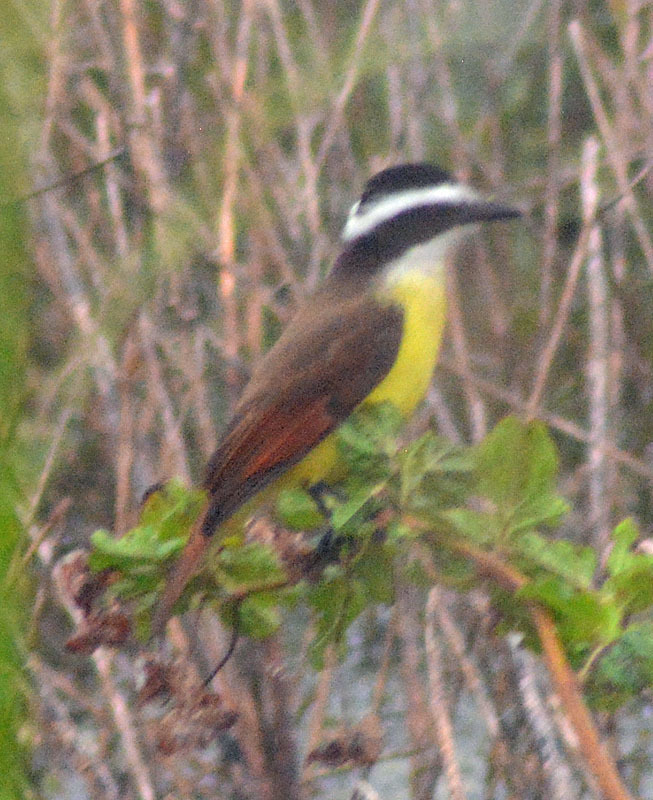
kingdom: Animalia
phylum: Chordata
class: Aves
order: Passeriformes
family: Tyrannidae
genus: Pitangus
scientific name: Pitangus sulphuratus
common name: Great kiskadee
